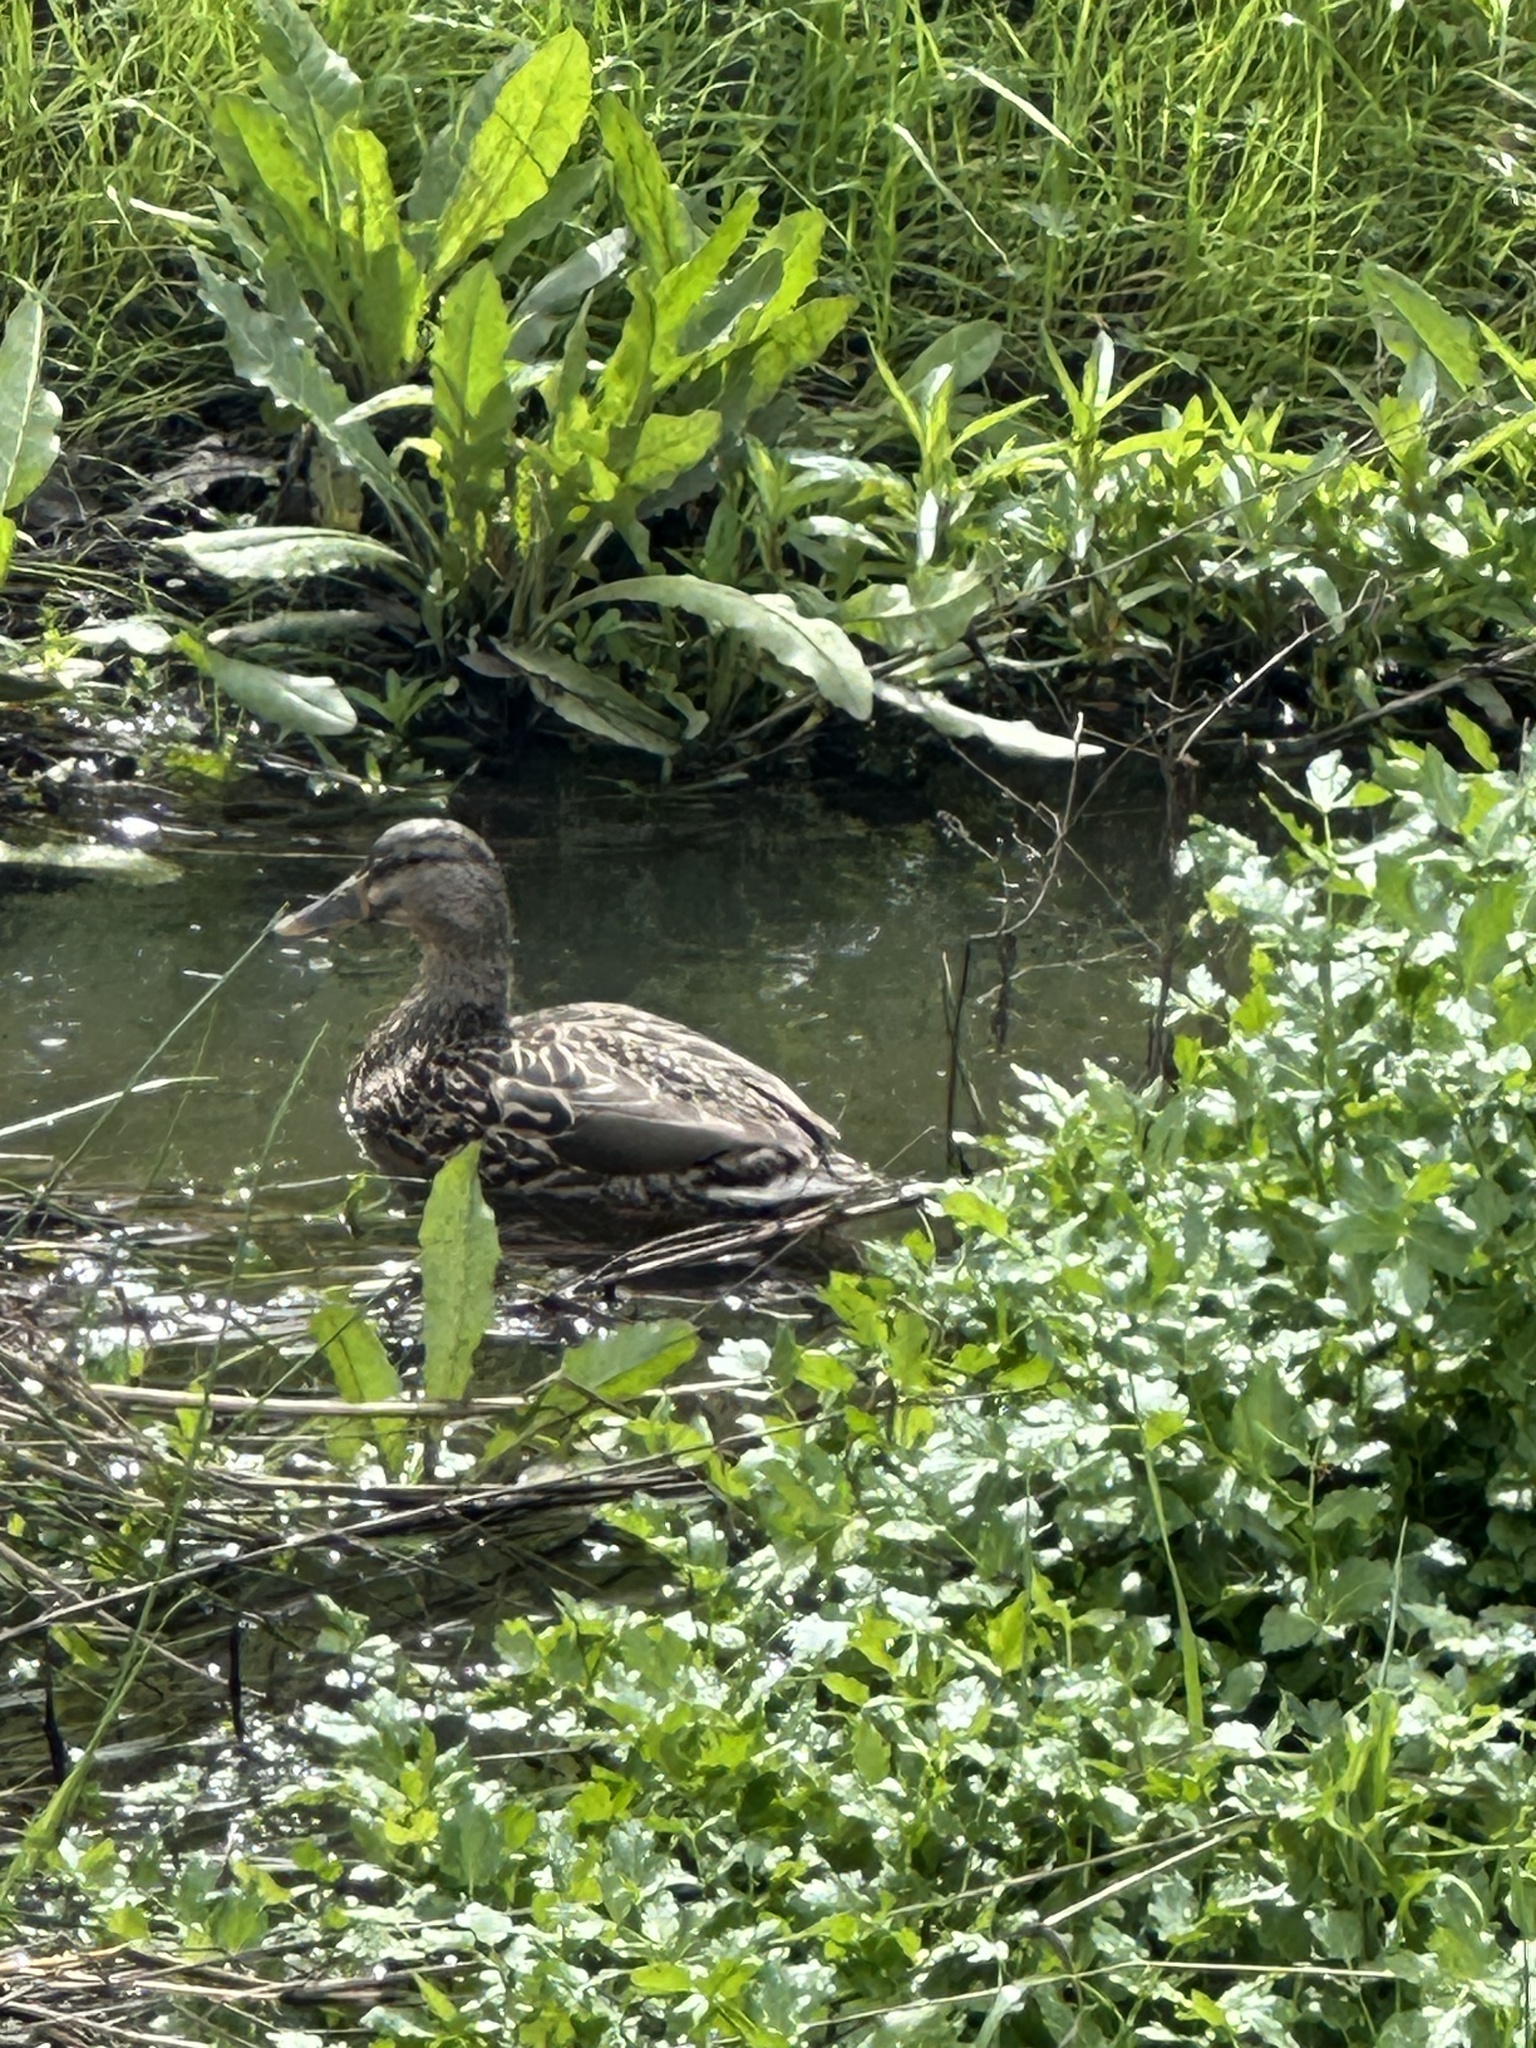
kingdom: Animalia
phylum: Chordata
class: Aves
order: Anseriformes
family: Anatidae
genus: Anas
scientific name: Anas platyrhynchos
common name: Mallard
